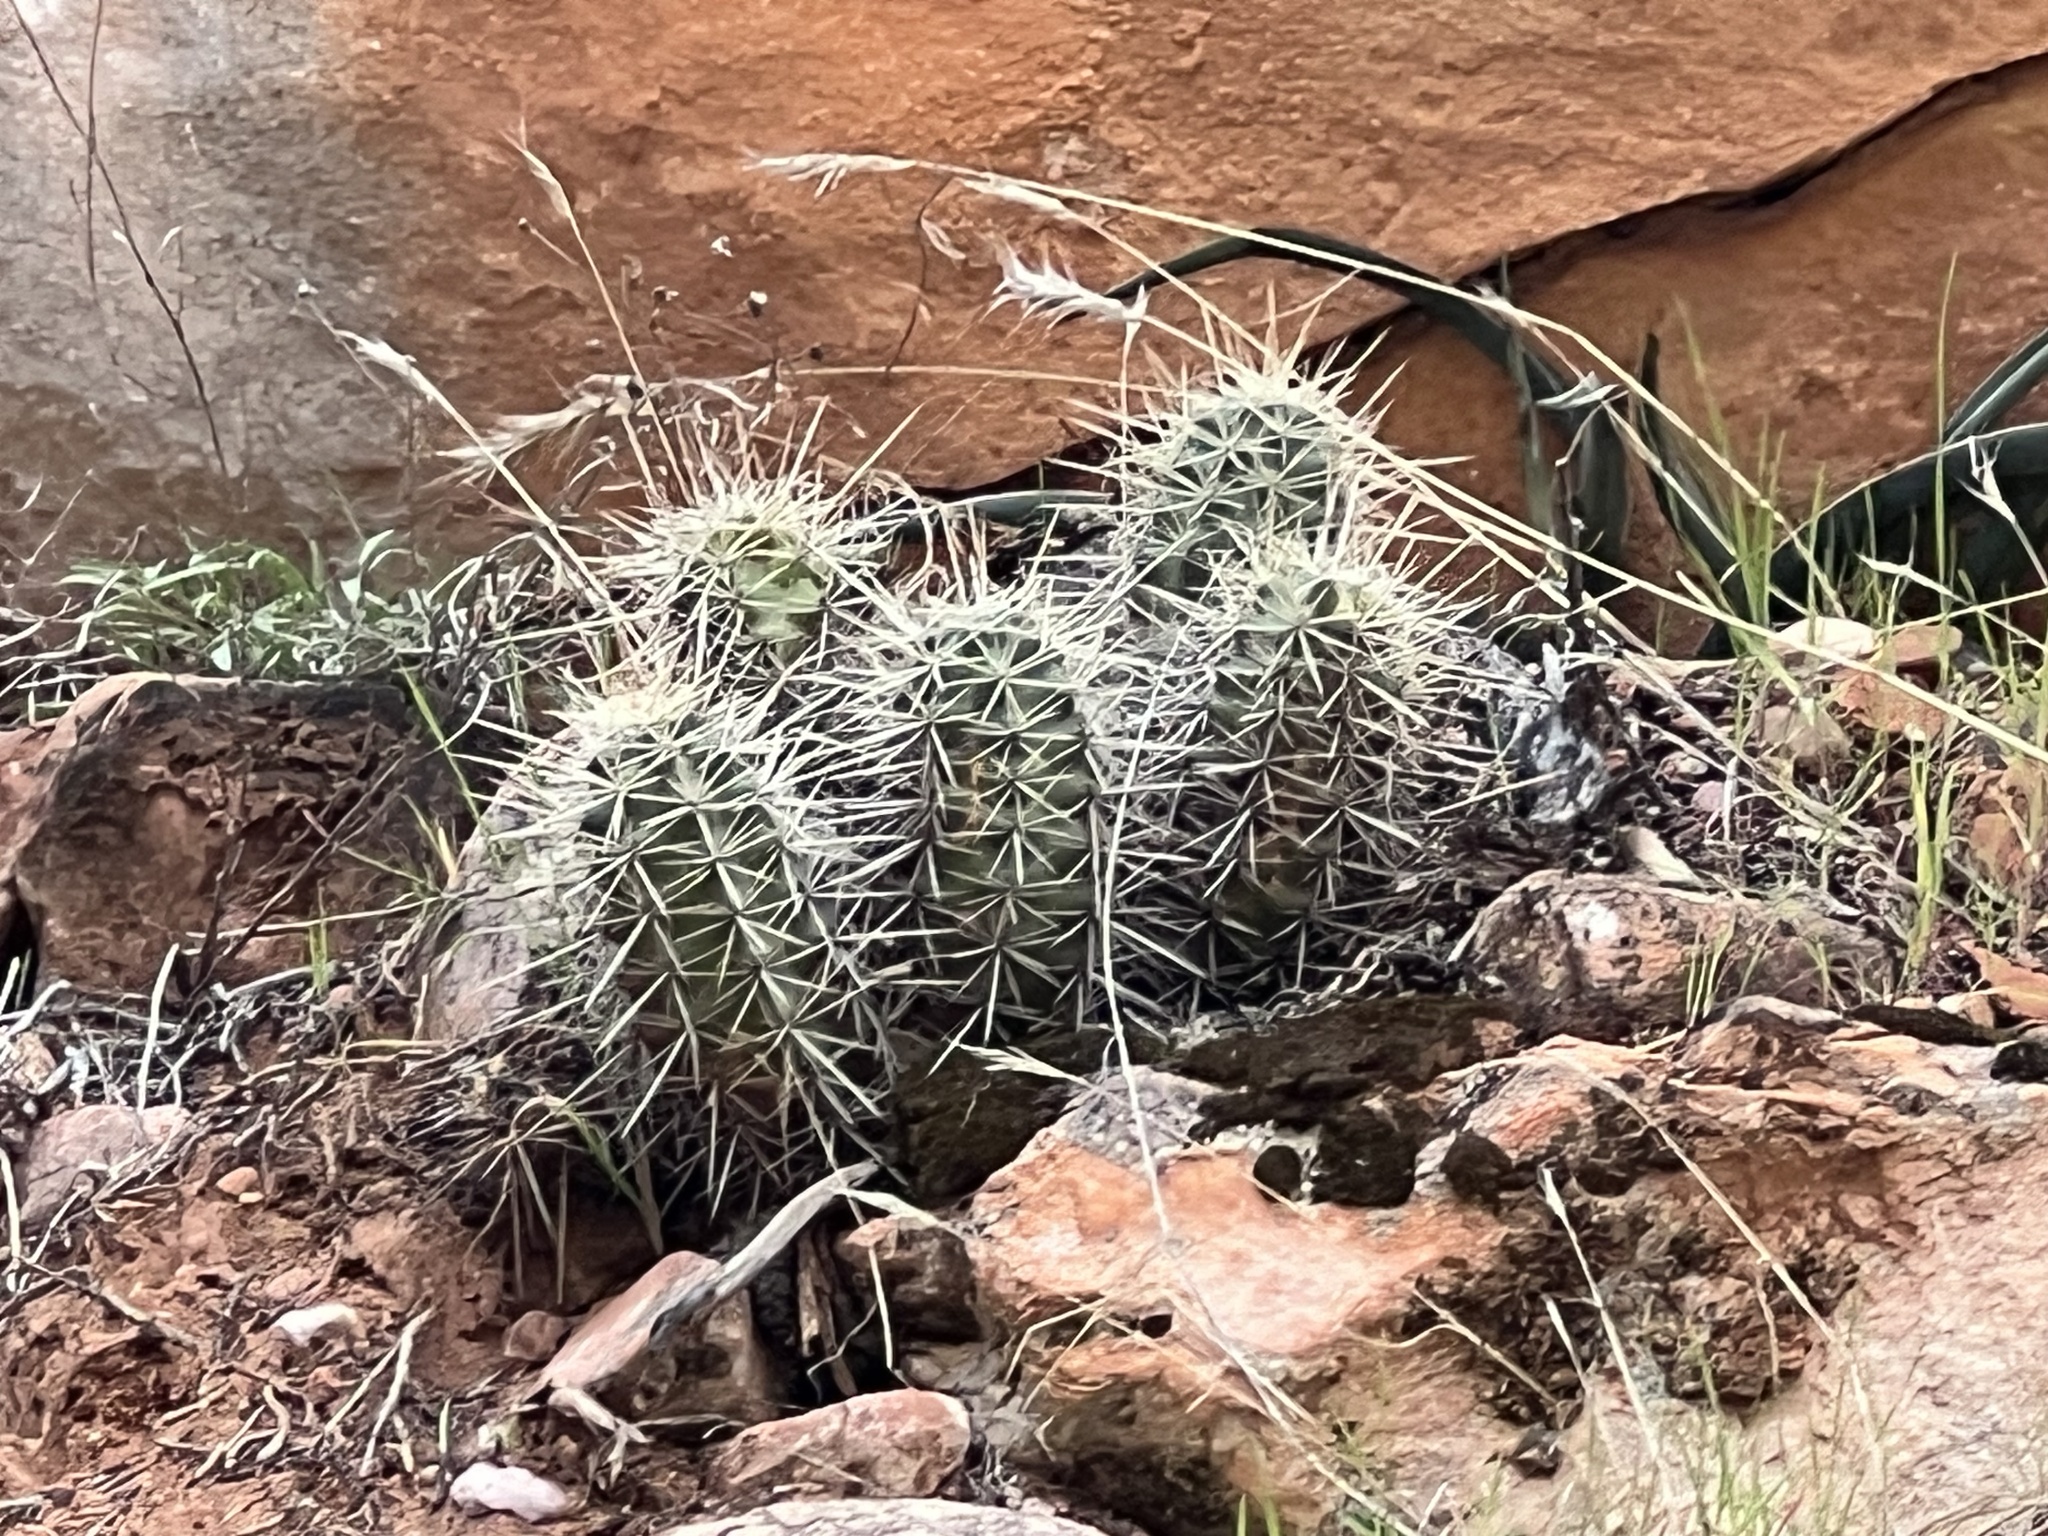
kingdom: Plantae
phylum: Tracheophyta
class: Magnoliopsida
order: Caryophyllales
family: Cactaceae
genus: Echinocereus
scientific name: Echinocereus triglochidiatus
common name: Claretcup hedgehog
